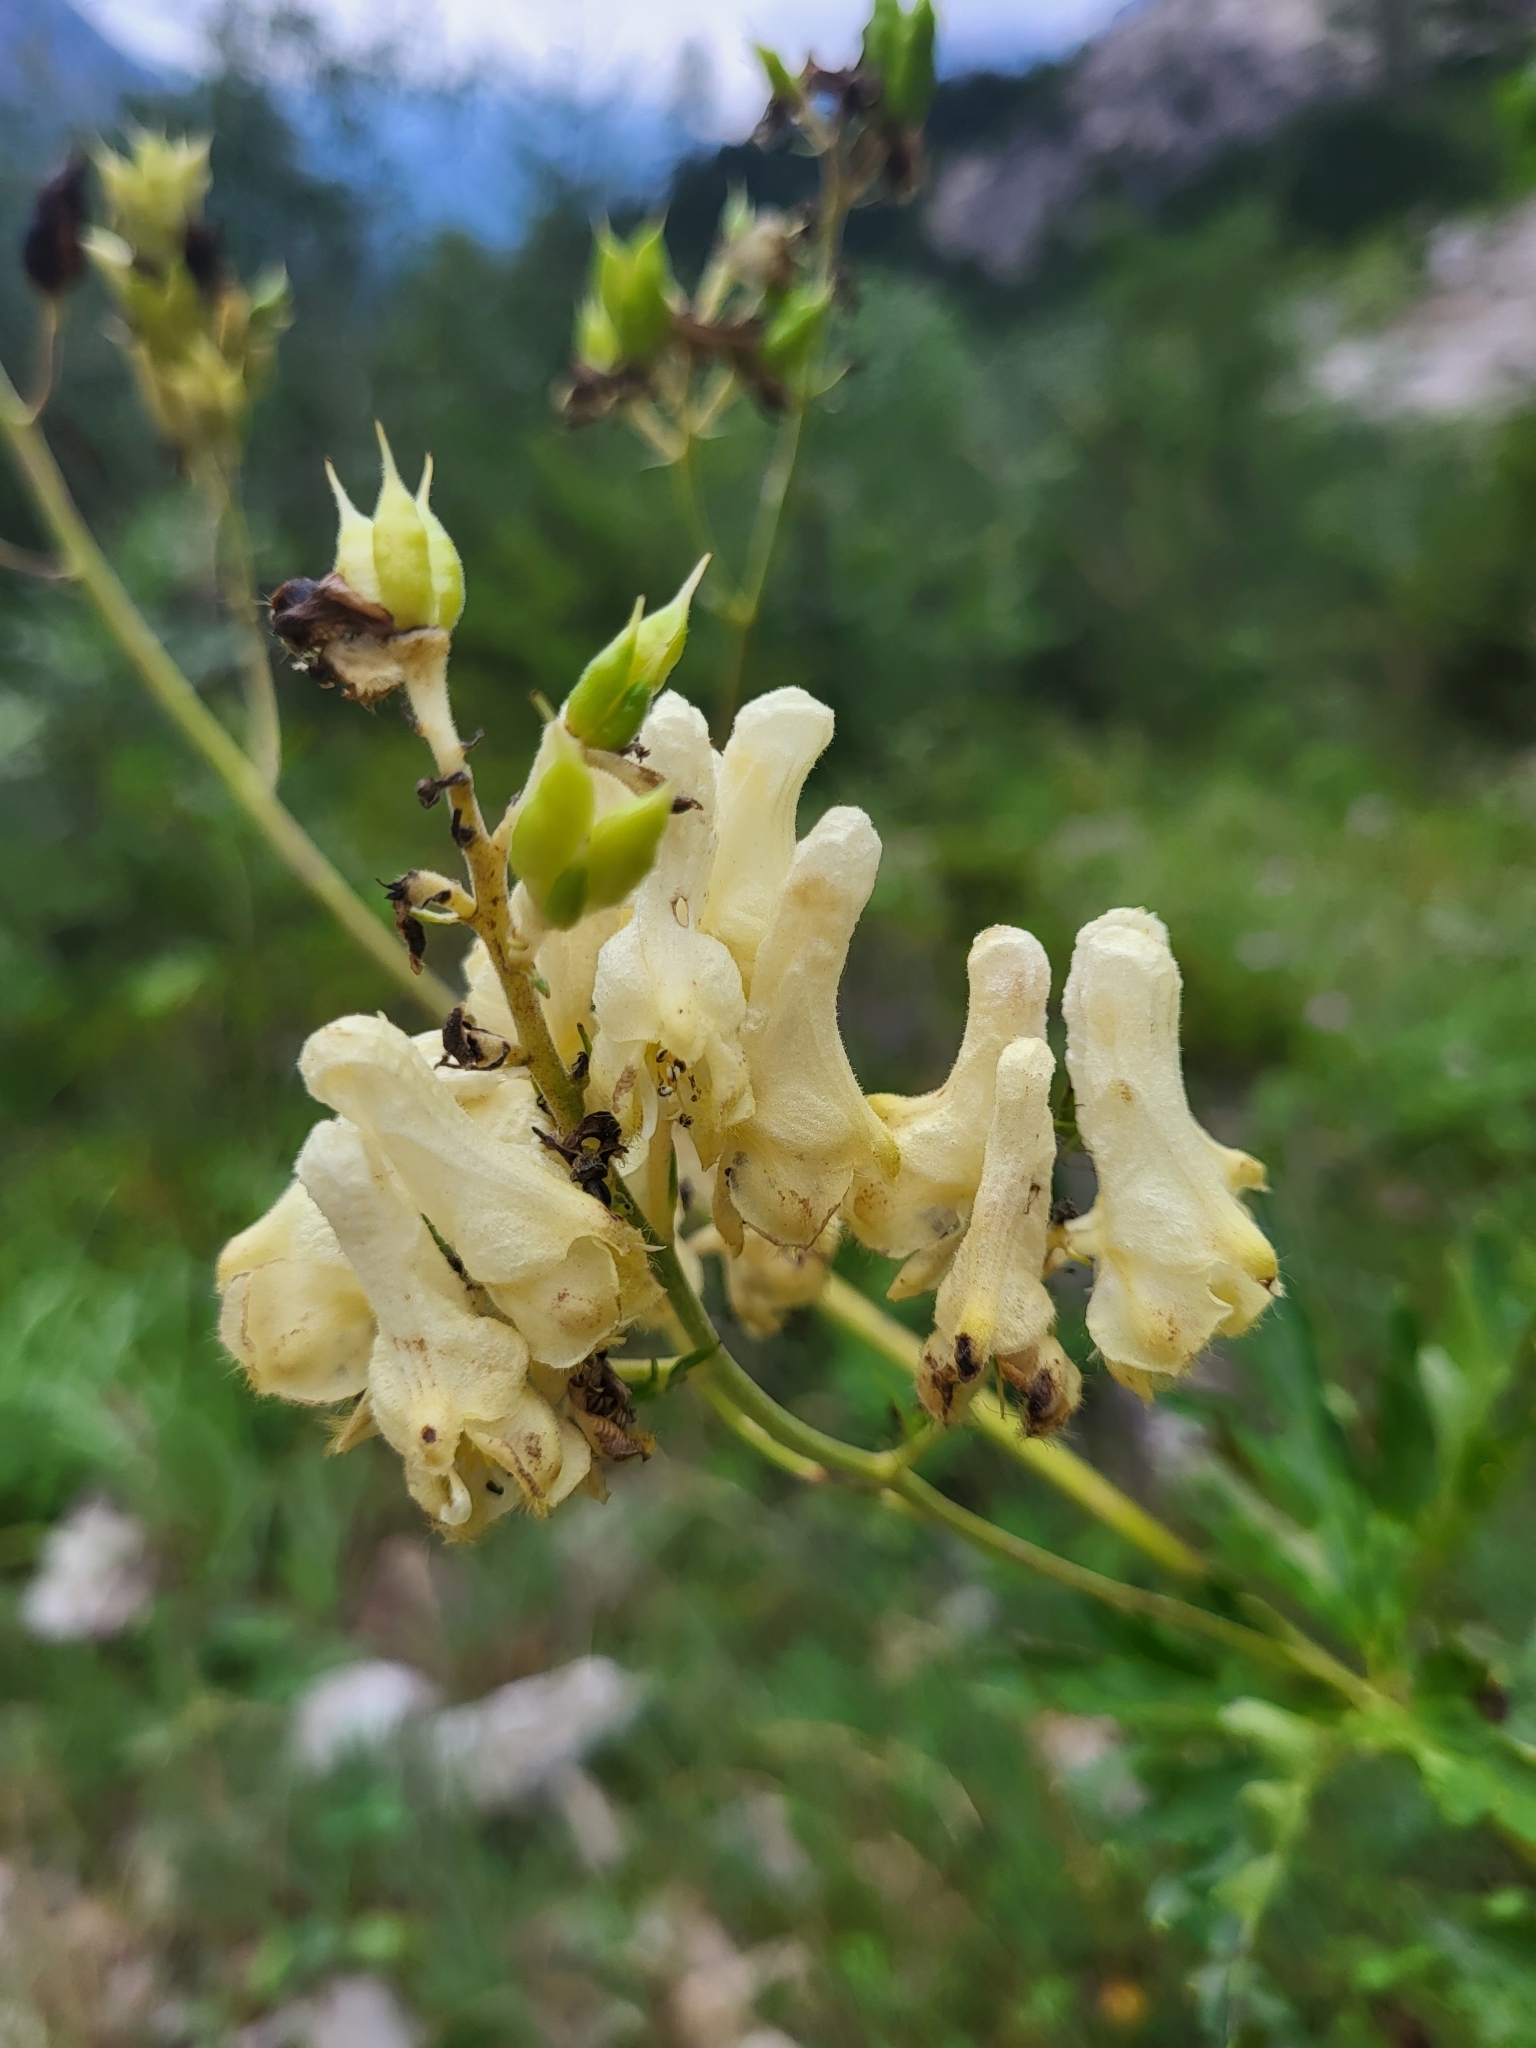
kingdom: Plantae
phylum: Tracheophyta
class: Magnoliopsida
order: Ranunculales
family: Ranunculaceae
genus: Aconitum
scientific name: Aconitum lycoctonum
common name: Wolf's-bane
